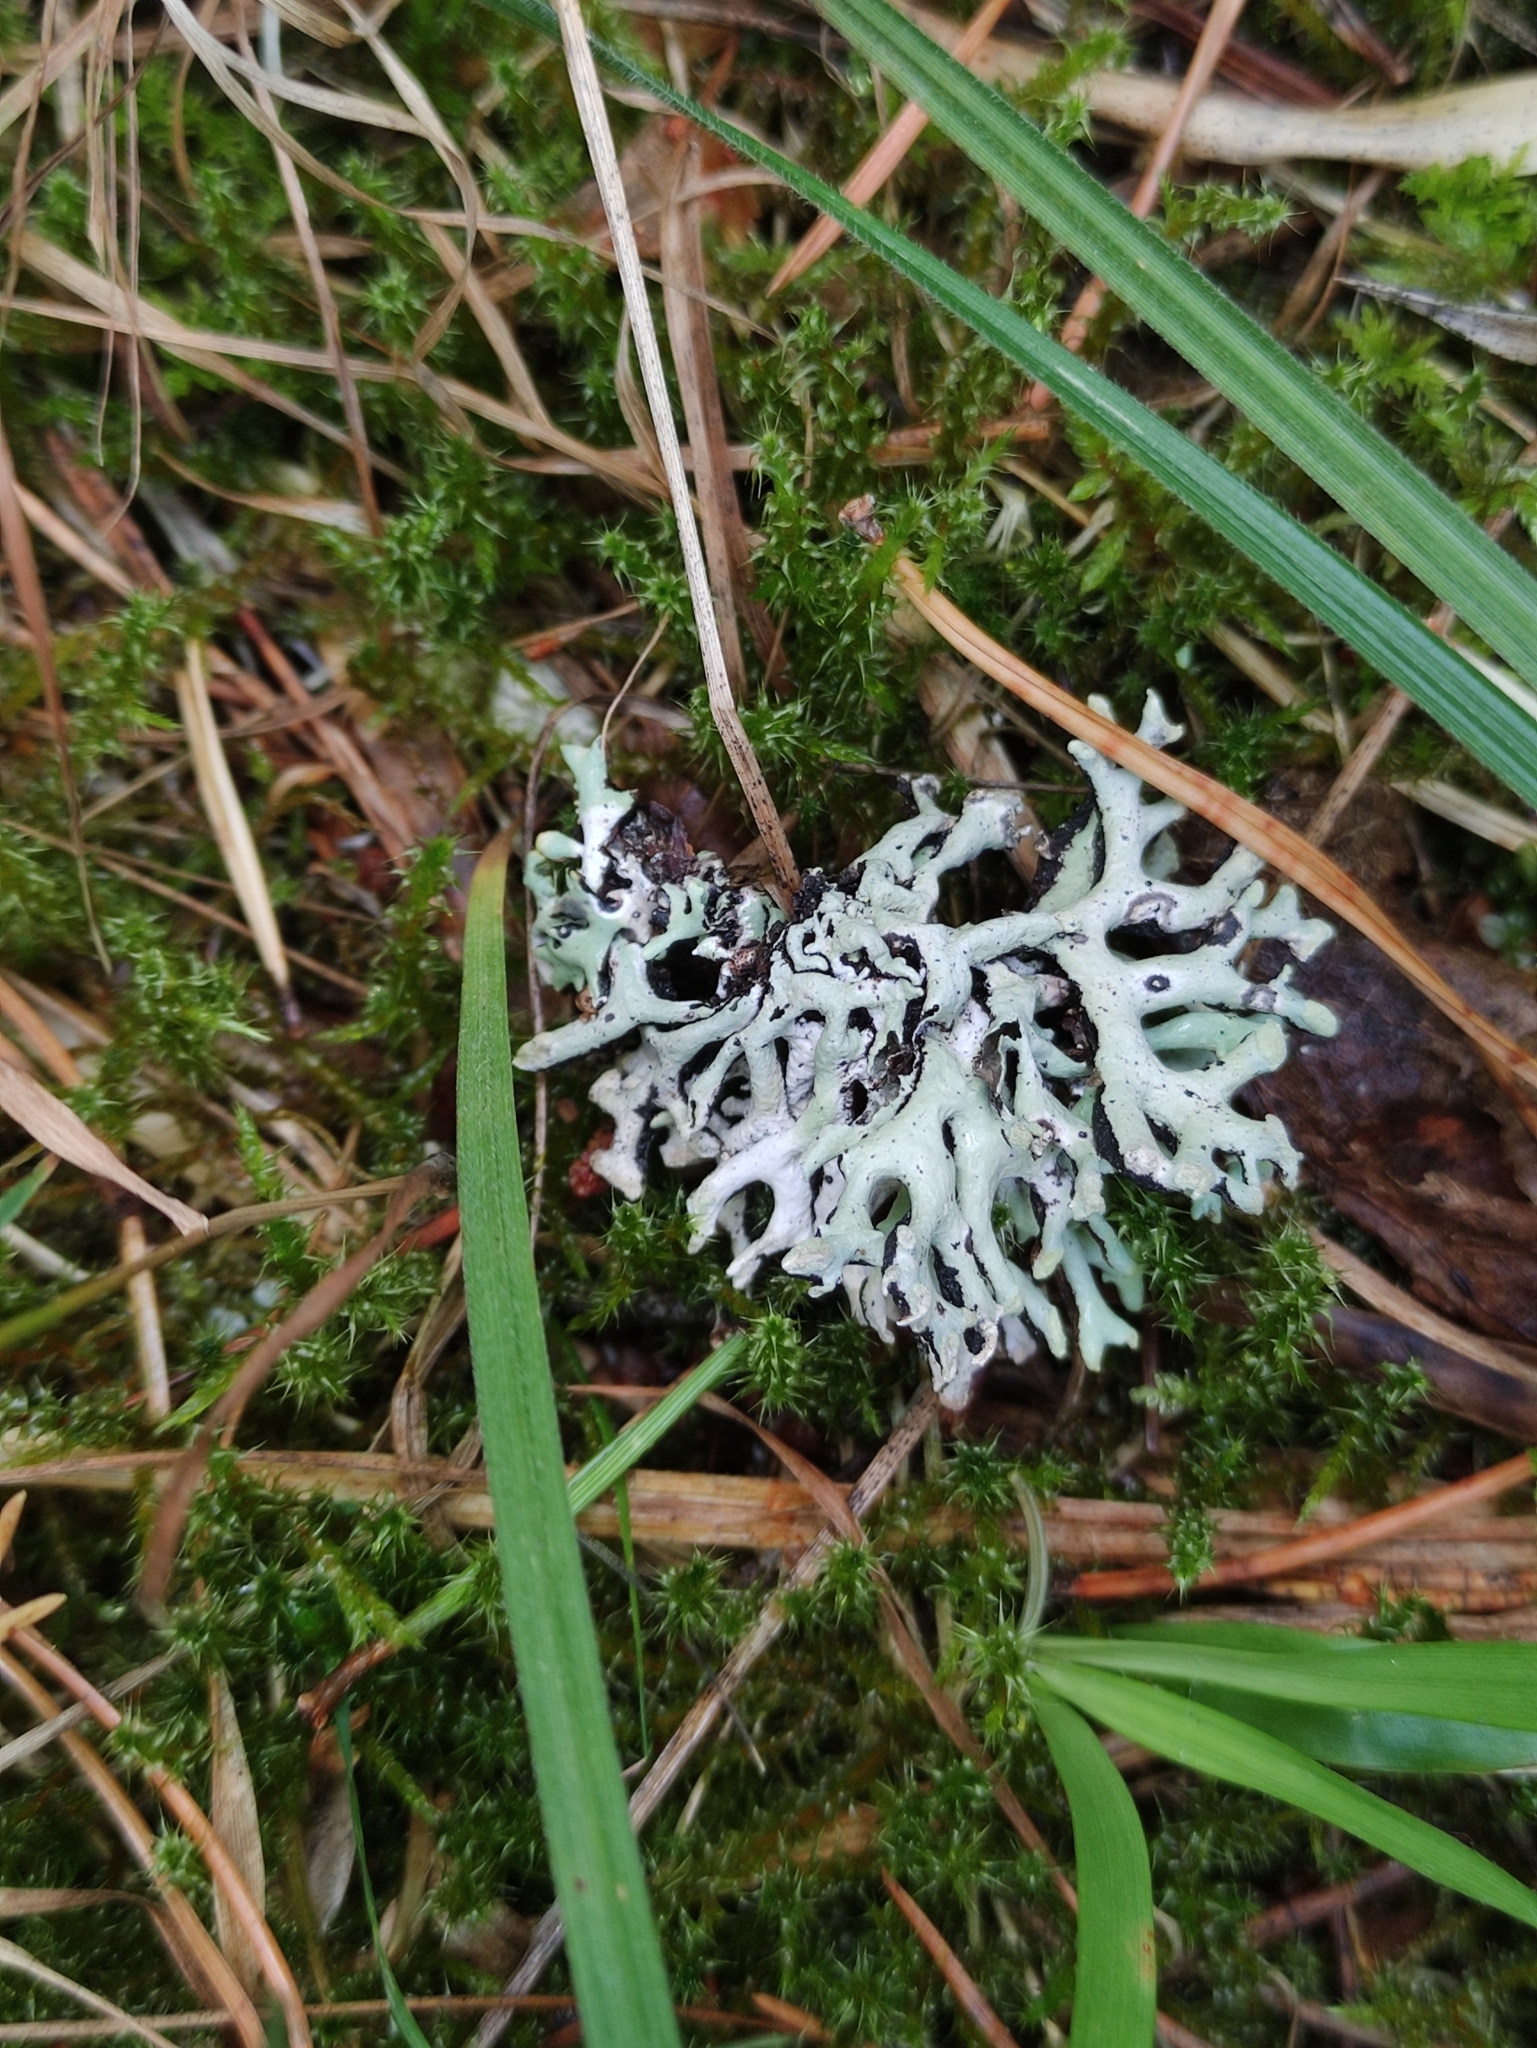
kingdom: Fungi
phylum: Ascomycota
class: Lecanoromycetes
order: Lecanorales
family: Parmeliaceae
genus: Hypogymnia
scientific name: Hypogymnia tubulosa
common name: Powder-headed tube lichen
